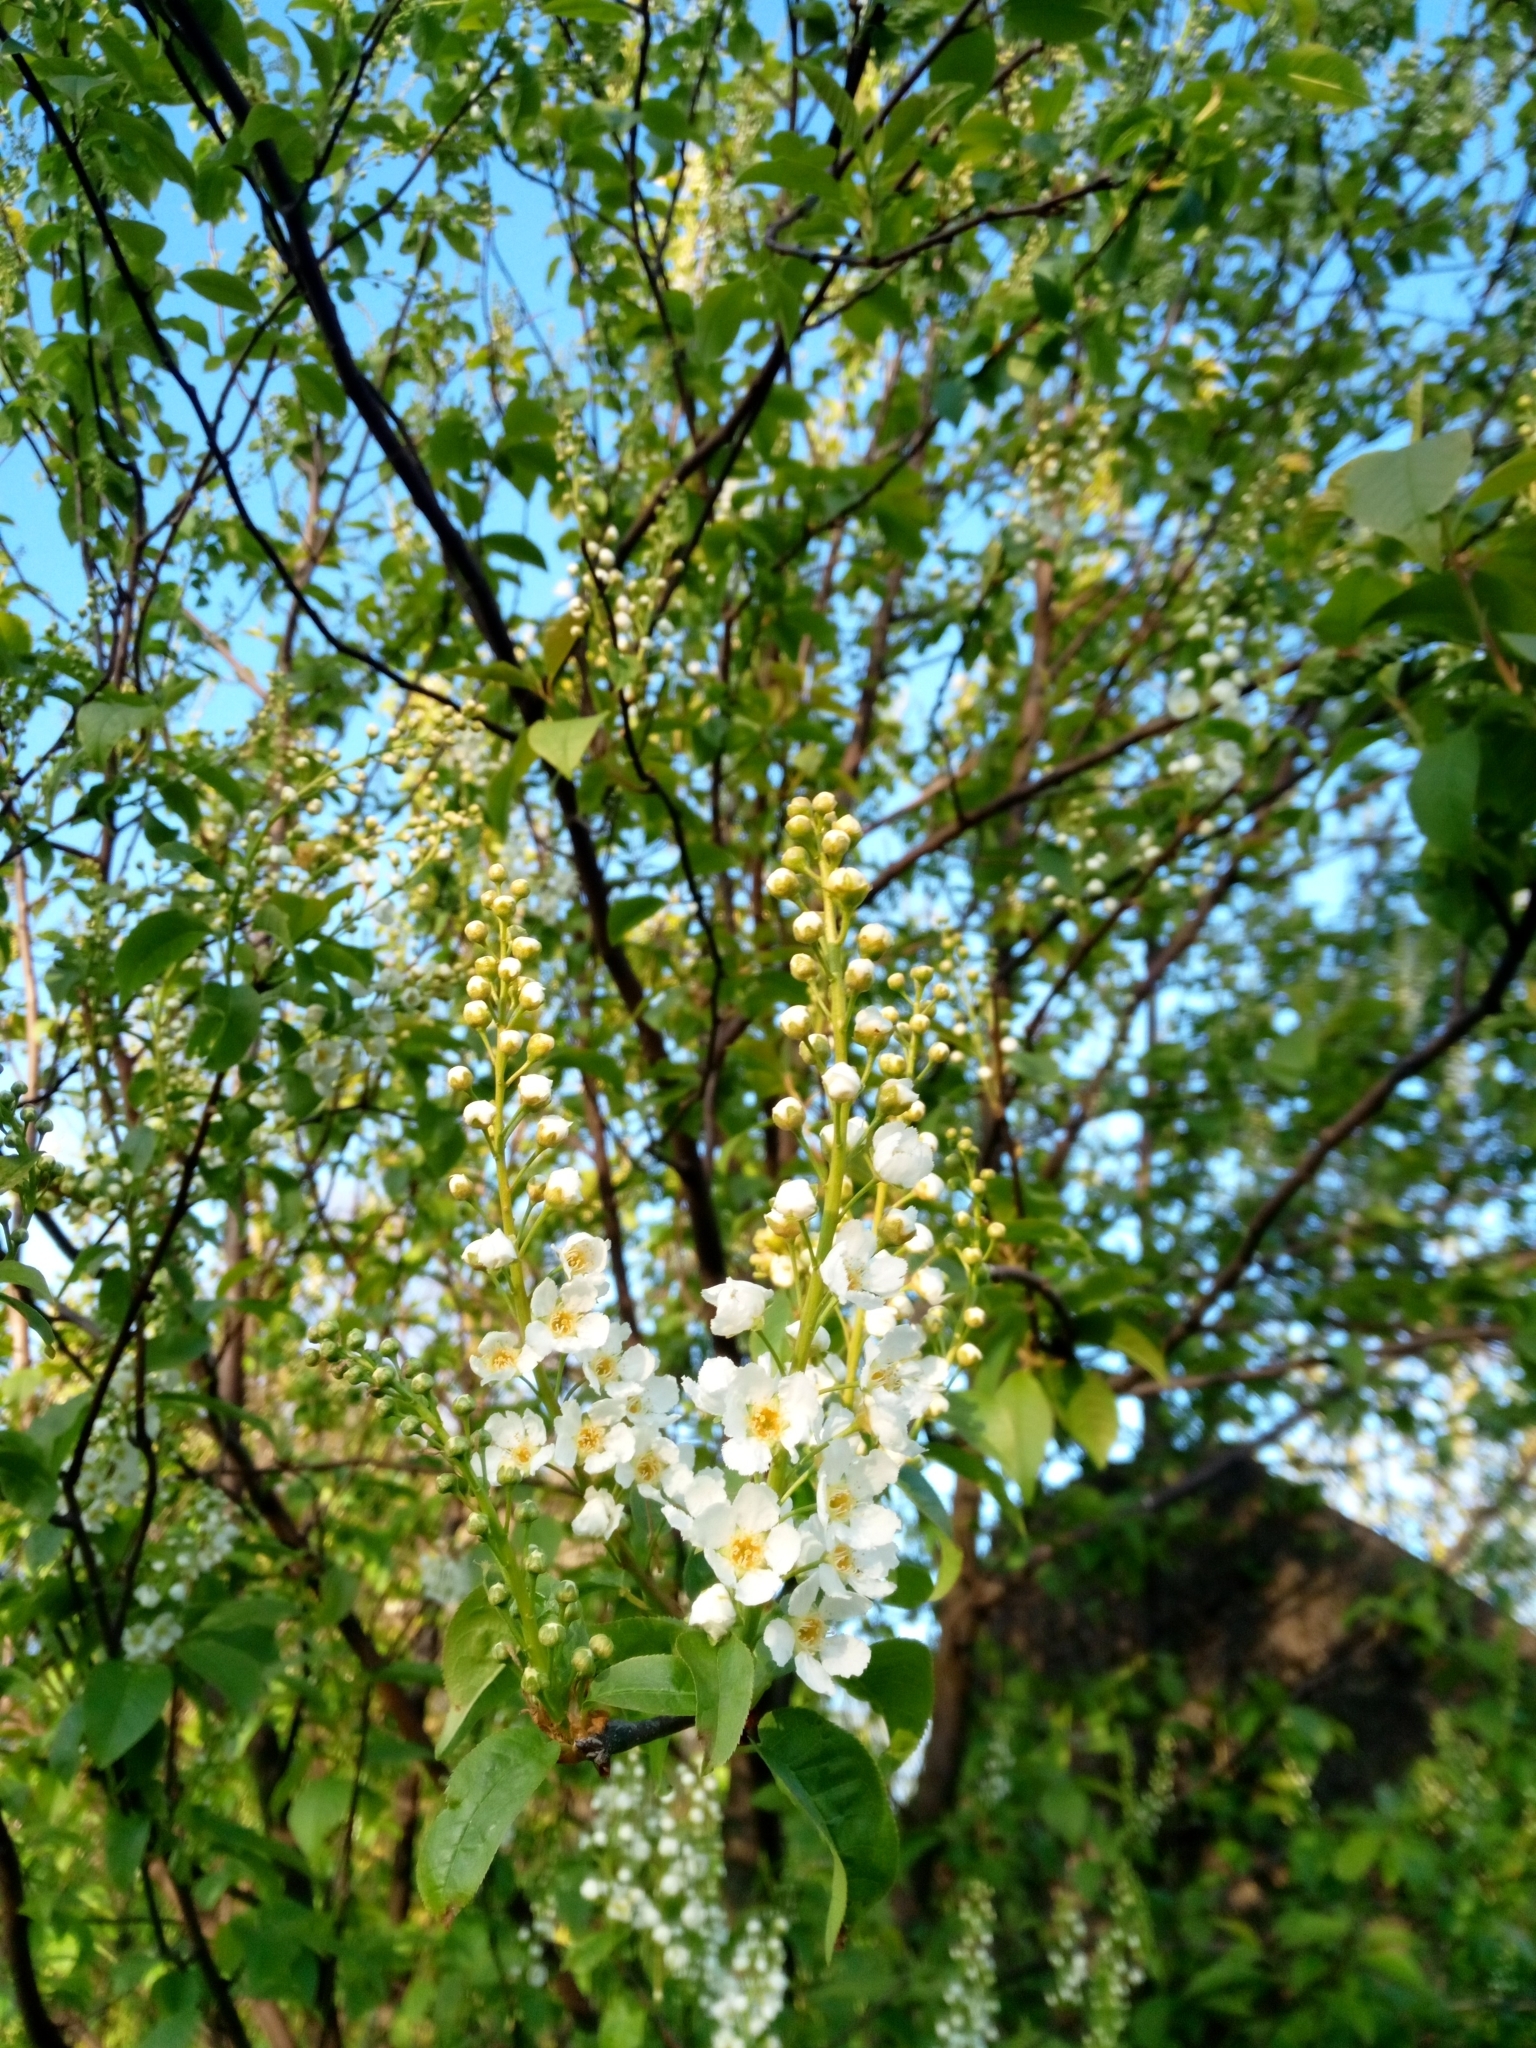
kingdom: Plantae
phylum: Tracheophyta
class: Magnoliopsida
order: Rosales
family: Rosaceae
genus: Prunus
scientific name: Prunus padus
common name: Bird cherry
